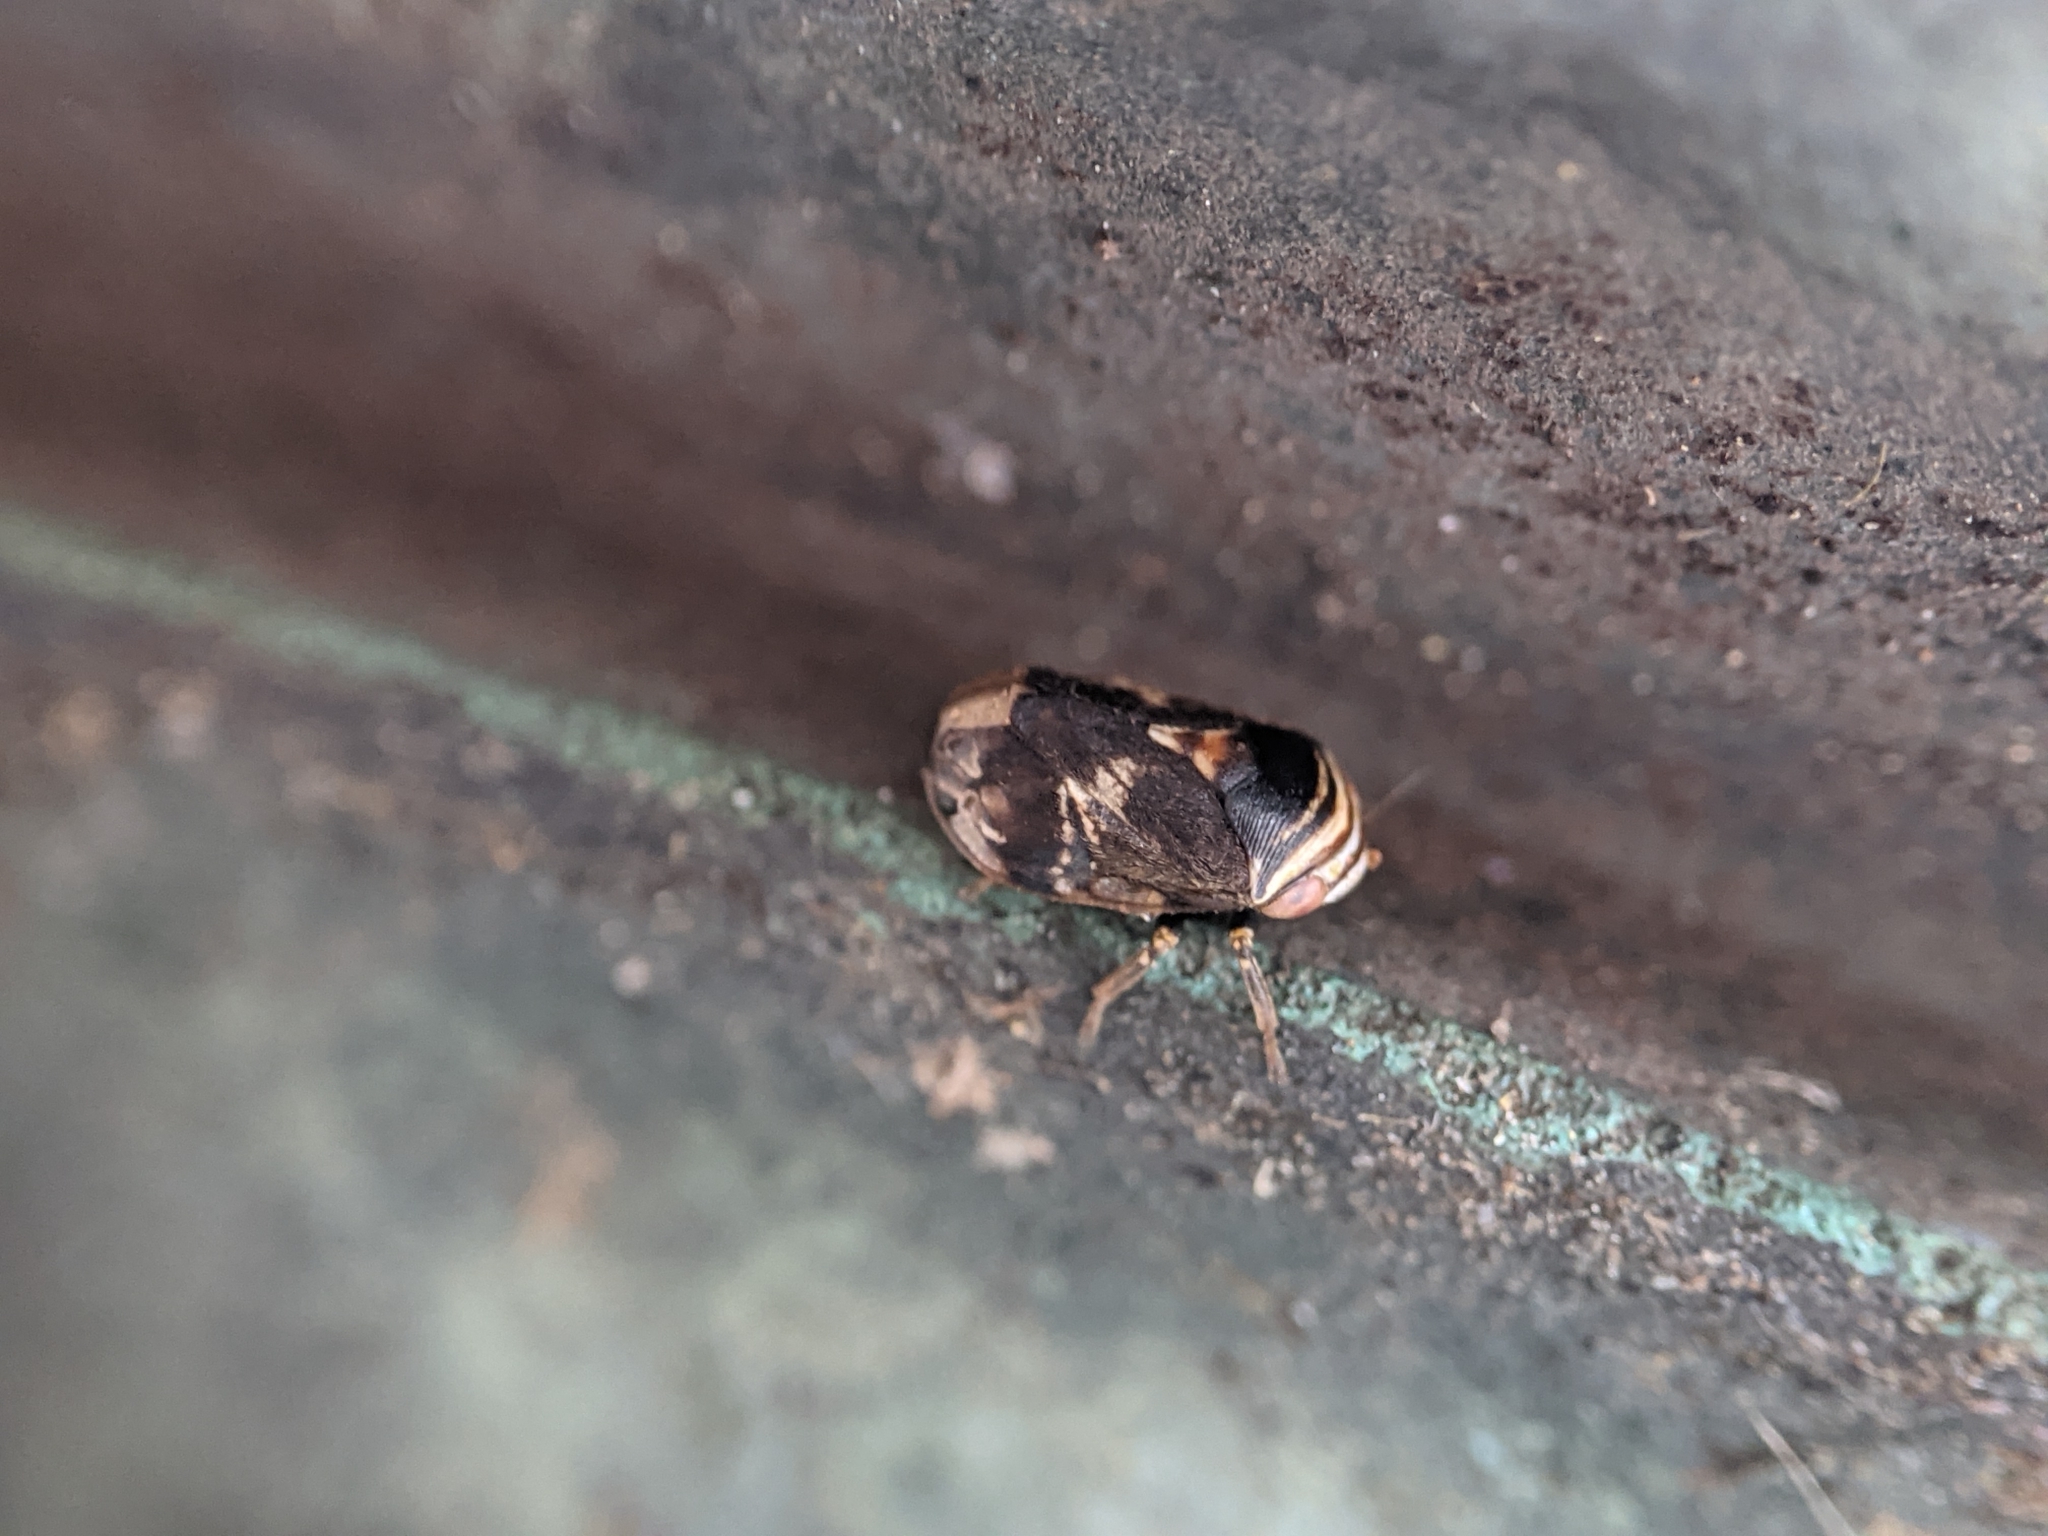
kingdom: Animalia
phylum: Arthropoda
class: Insecta
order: Hemiptera
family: Clastopteridae
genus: Clastoptera
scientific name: Clastoptera obtusa
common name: Alder spittlebug
